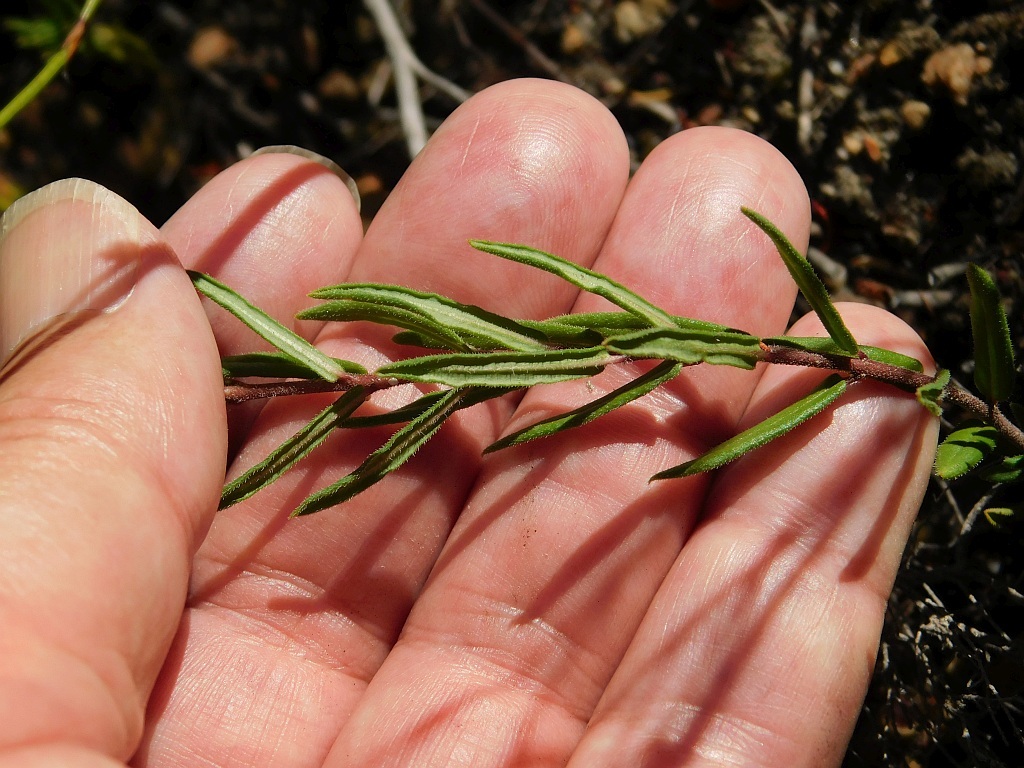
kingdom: Plantae
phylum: Tracheophyta
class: Magnoliopsida
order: Gentianales
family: Apocynaceae
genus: Aspidoglossum
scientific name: Aspidoglossum heterophyllum
